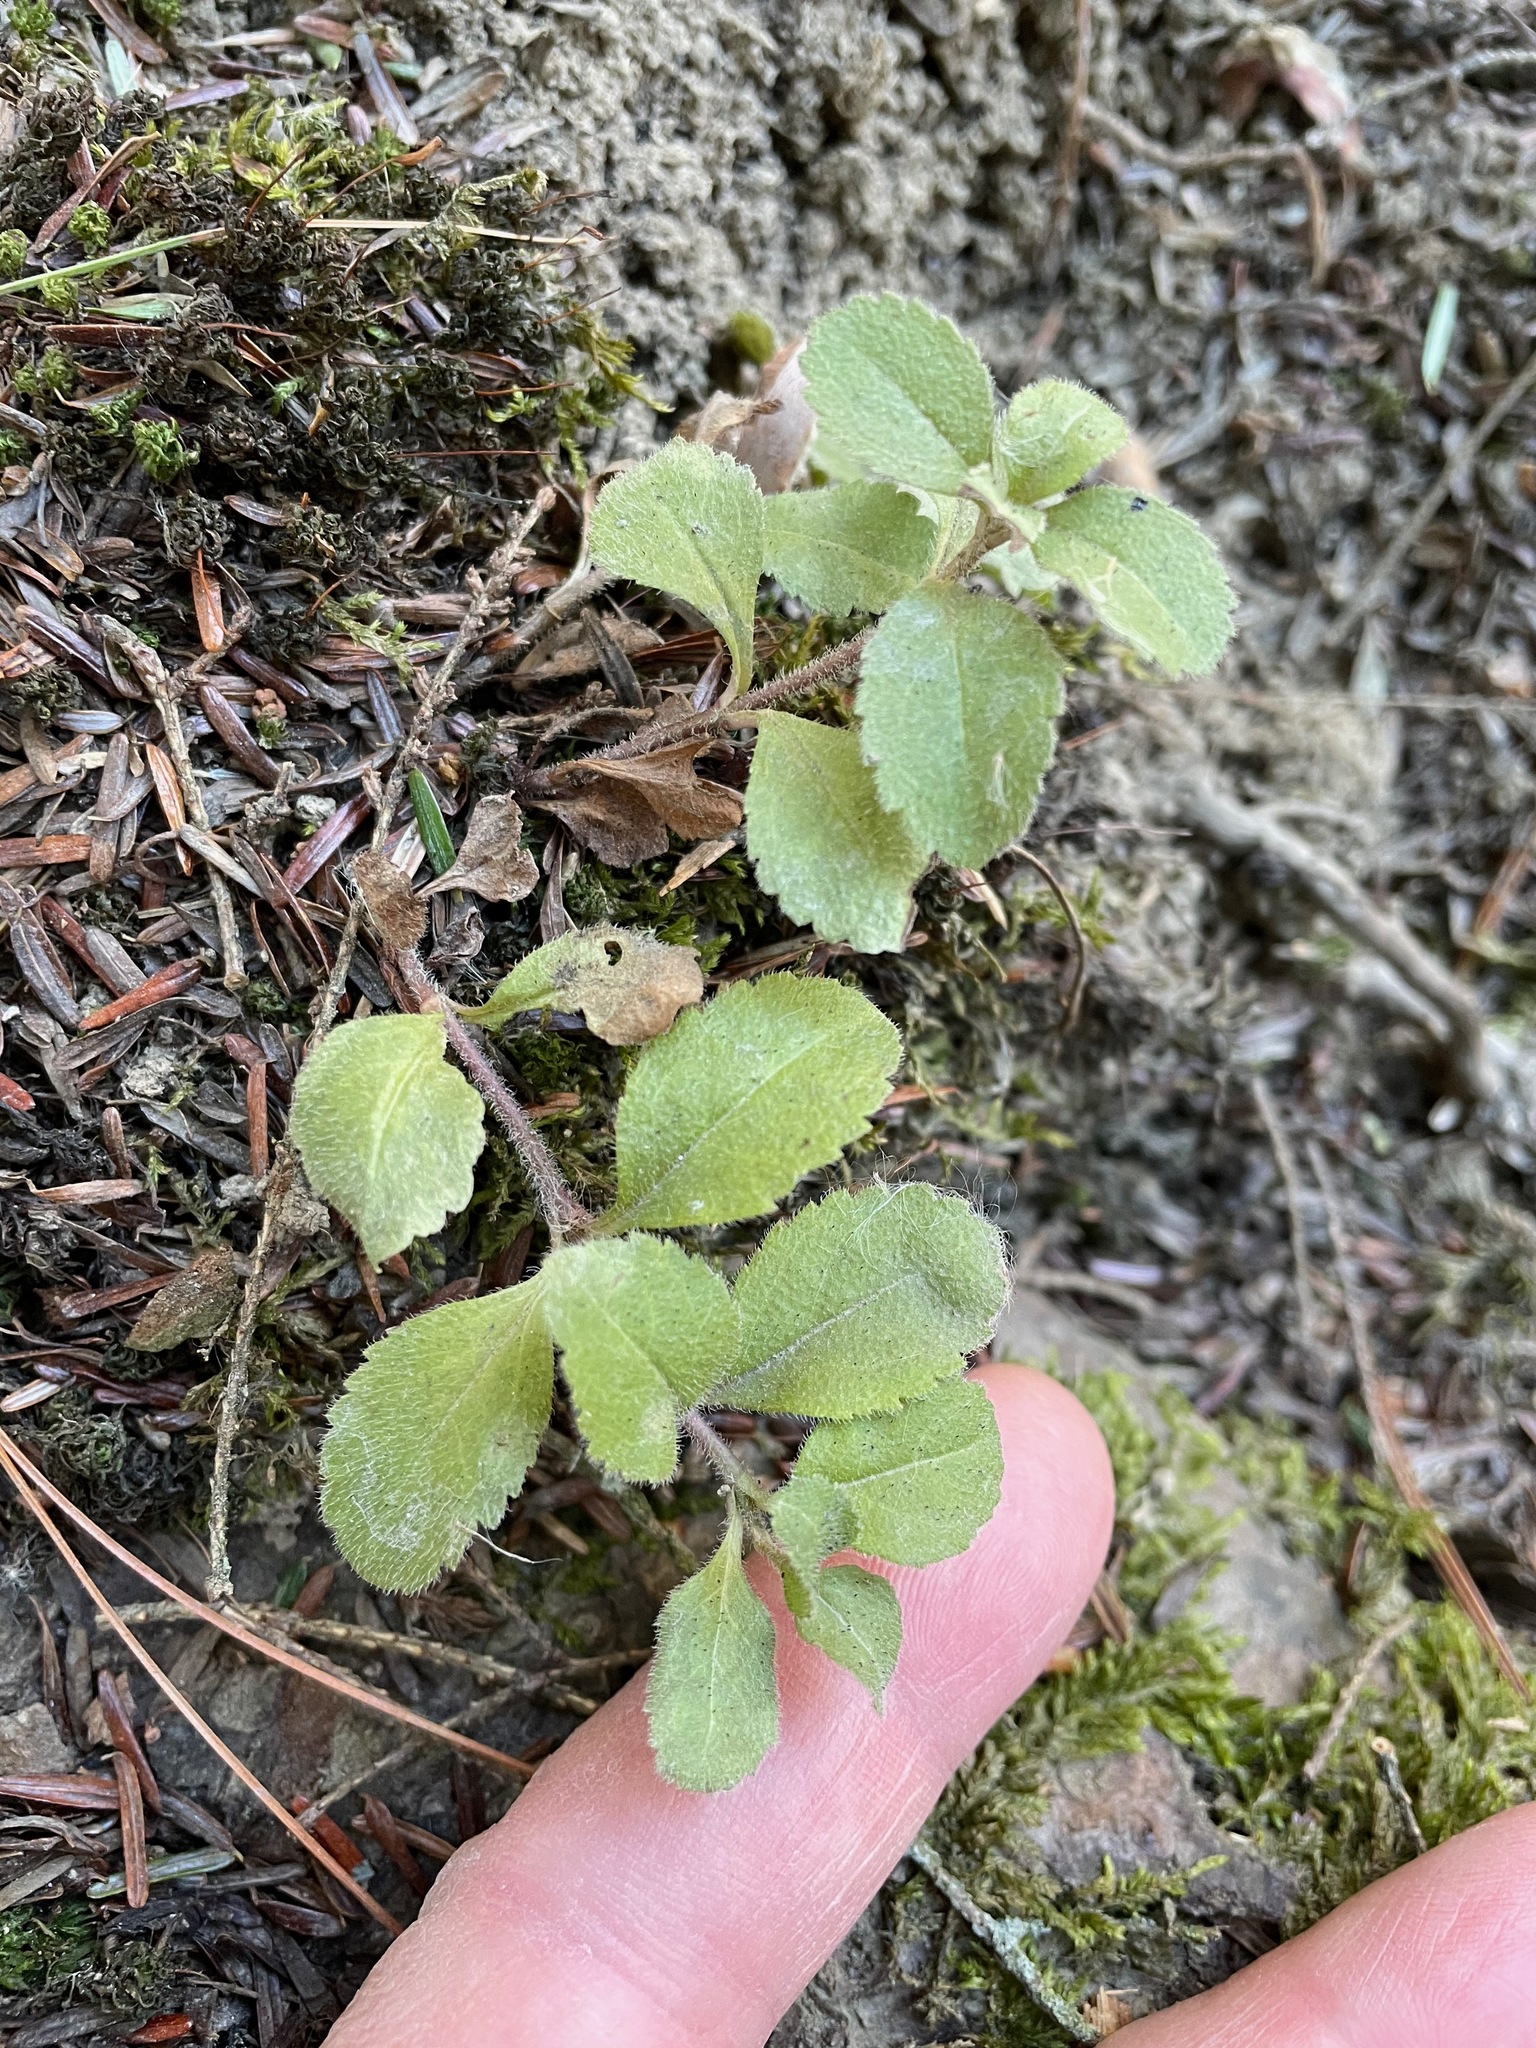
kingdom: Plantae
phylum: Tracheophyta
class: Magnoliopsida
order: Lamiales
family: Plantaginaceae
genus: Veronica
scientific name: Veronica officinalis
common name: Common speedwell
